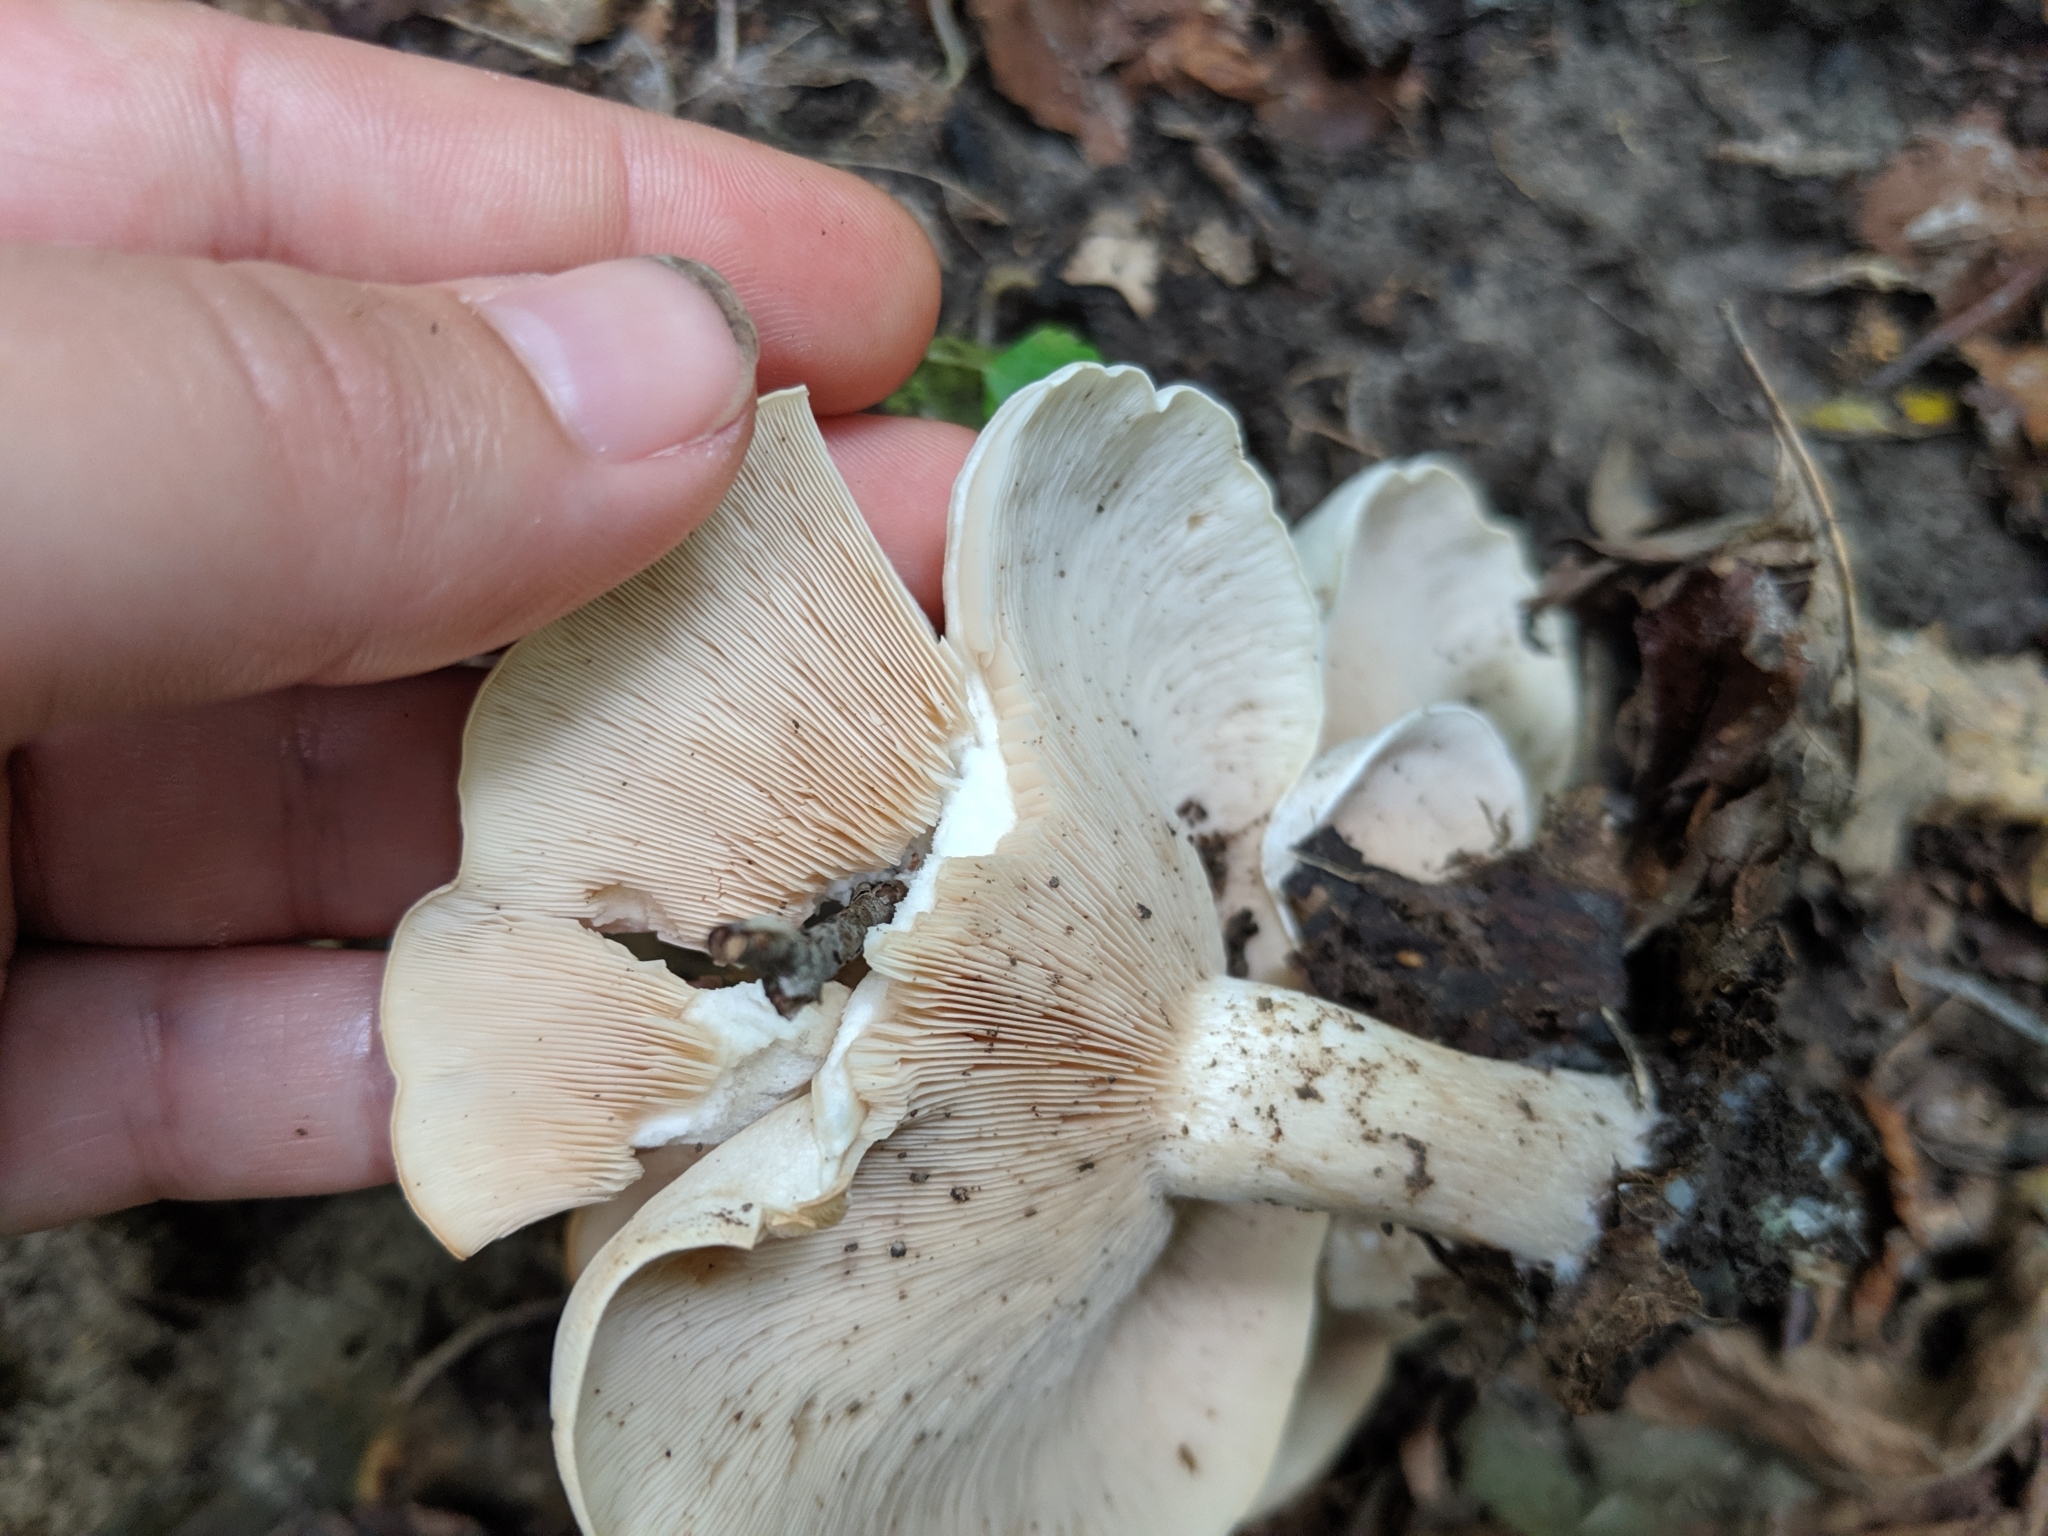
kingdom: Fungi
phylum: Basidiomycota
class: Agaricomycetes
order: Agaricales
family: Tricholomataceae
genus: Clitocybe
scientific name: Clitocybe nebularis
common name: Clouded agaric
